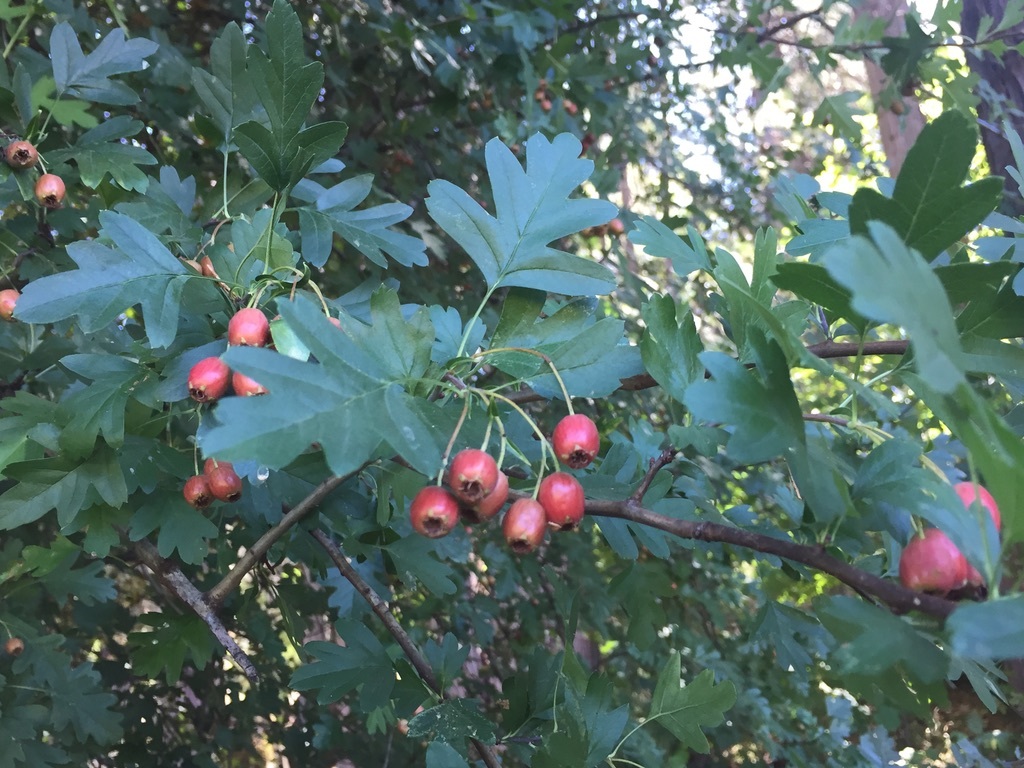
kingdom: Plantae
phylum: Tracheophyta
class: Magnoliopsida
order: Rosales
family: Rosaceae
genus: Crataegus
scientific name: Crataegus monogyna
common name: Hawthorn
